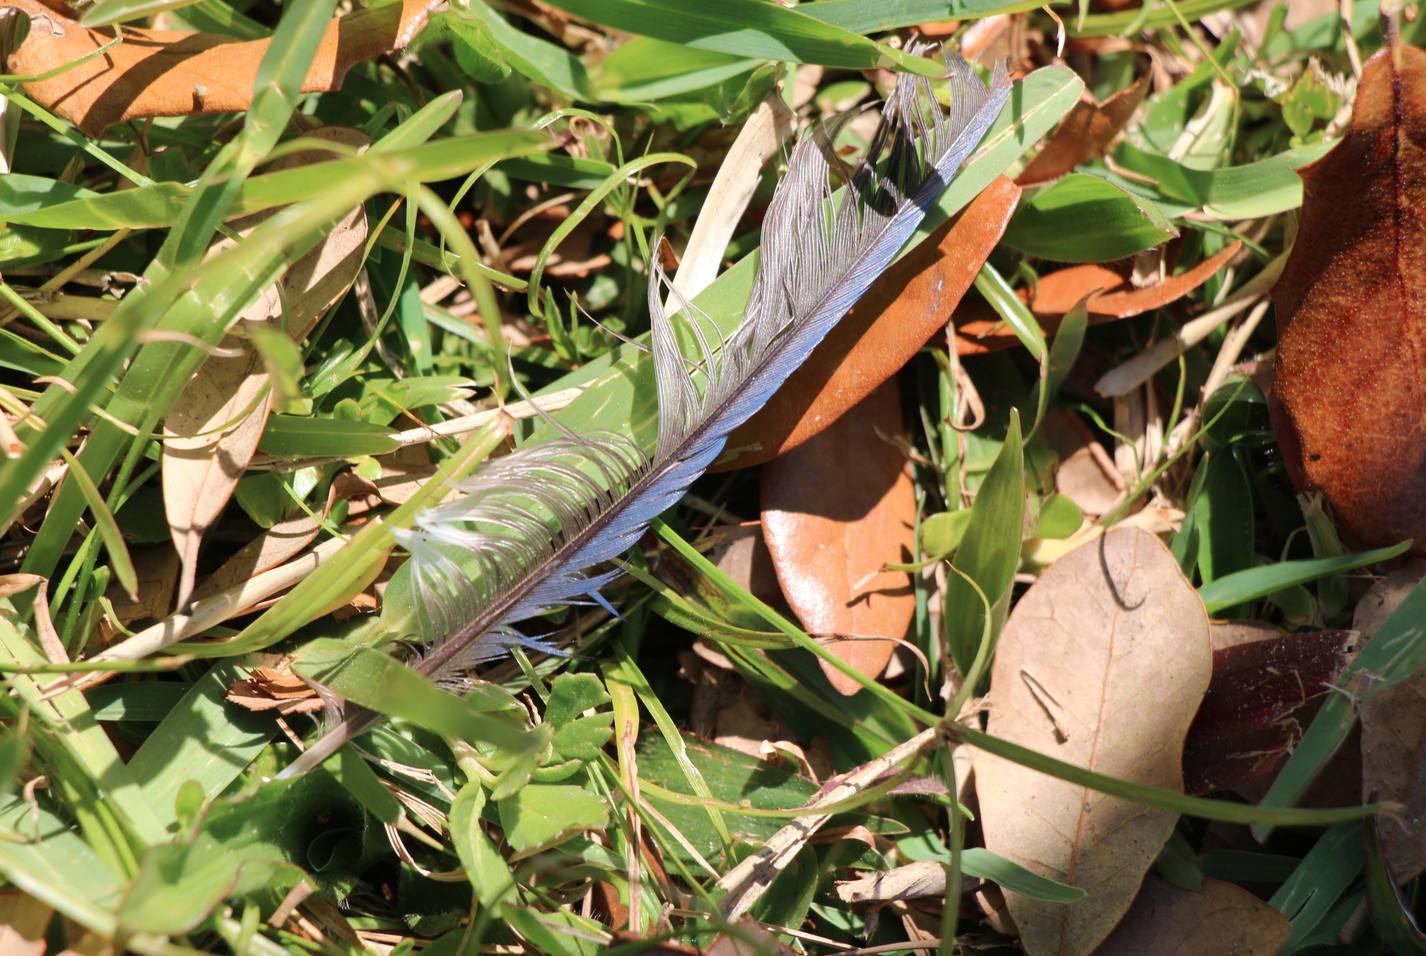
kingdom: Animalia
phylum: Chordata
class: Aves
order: Passeriformes
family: Corvidae
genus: Cyanocitta
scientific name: Cyanocitta cristata
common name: Blue jay
